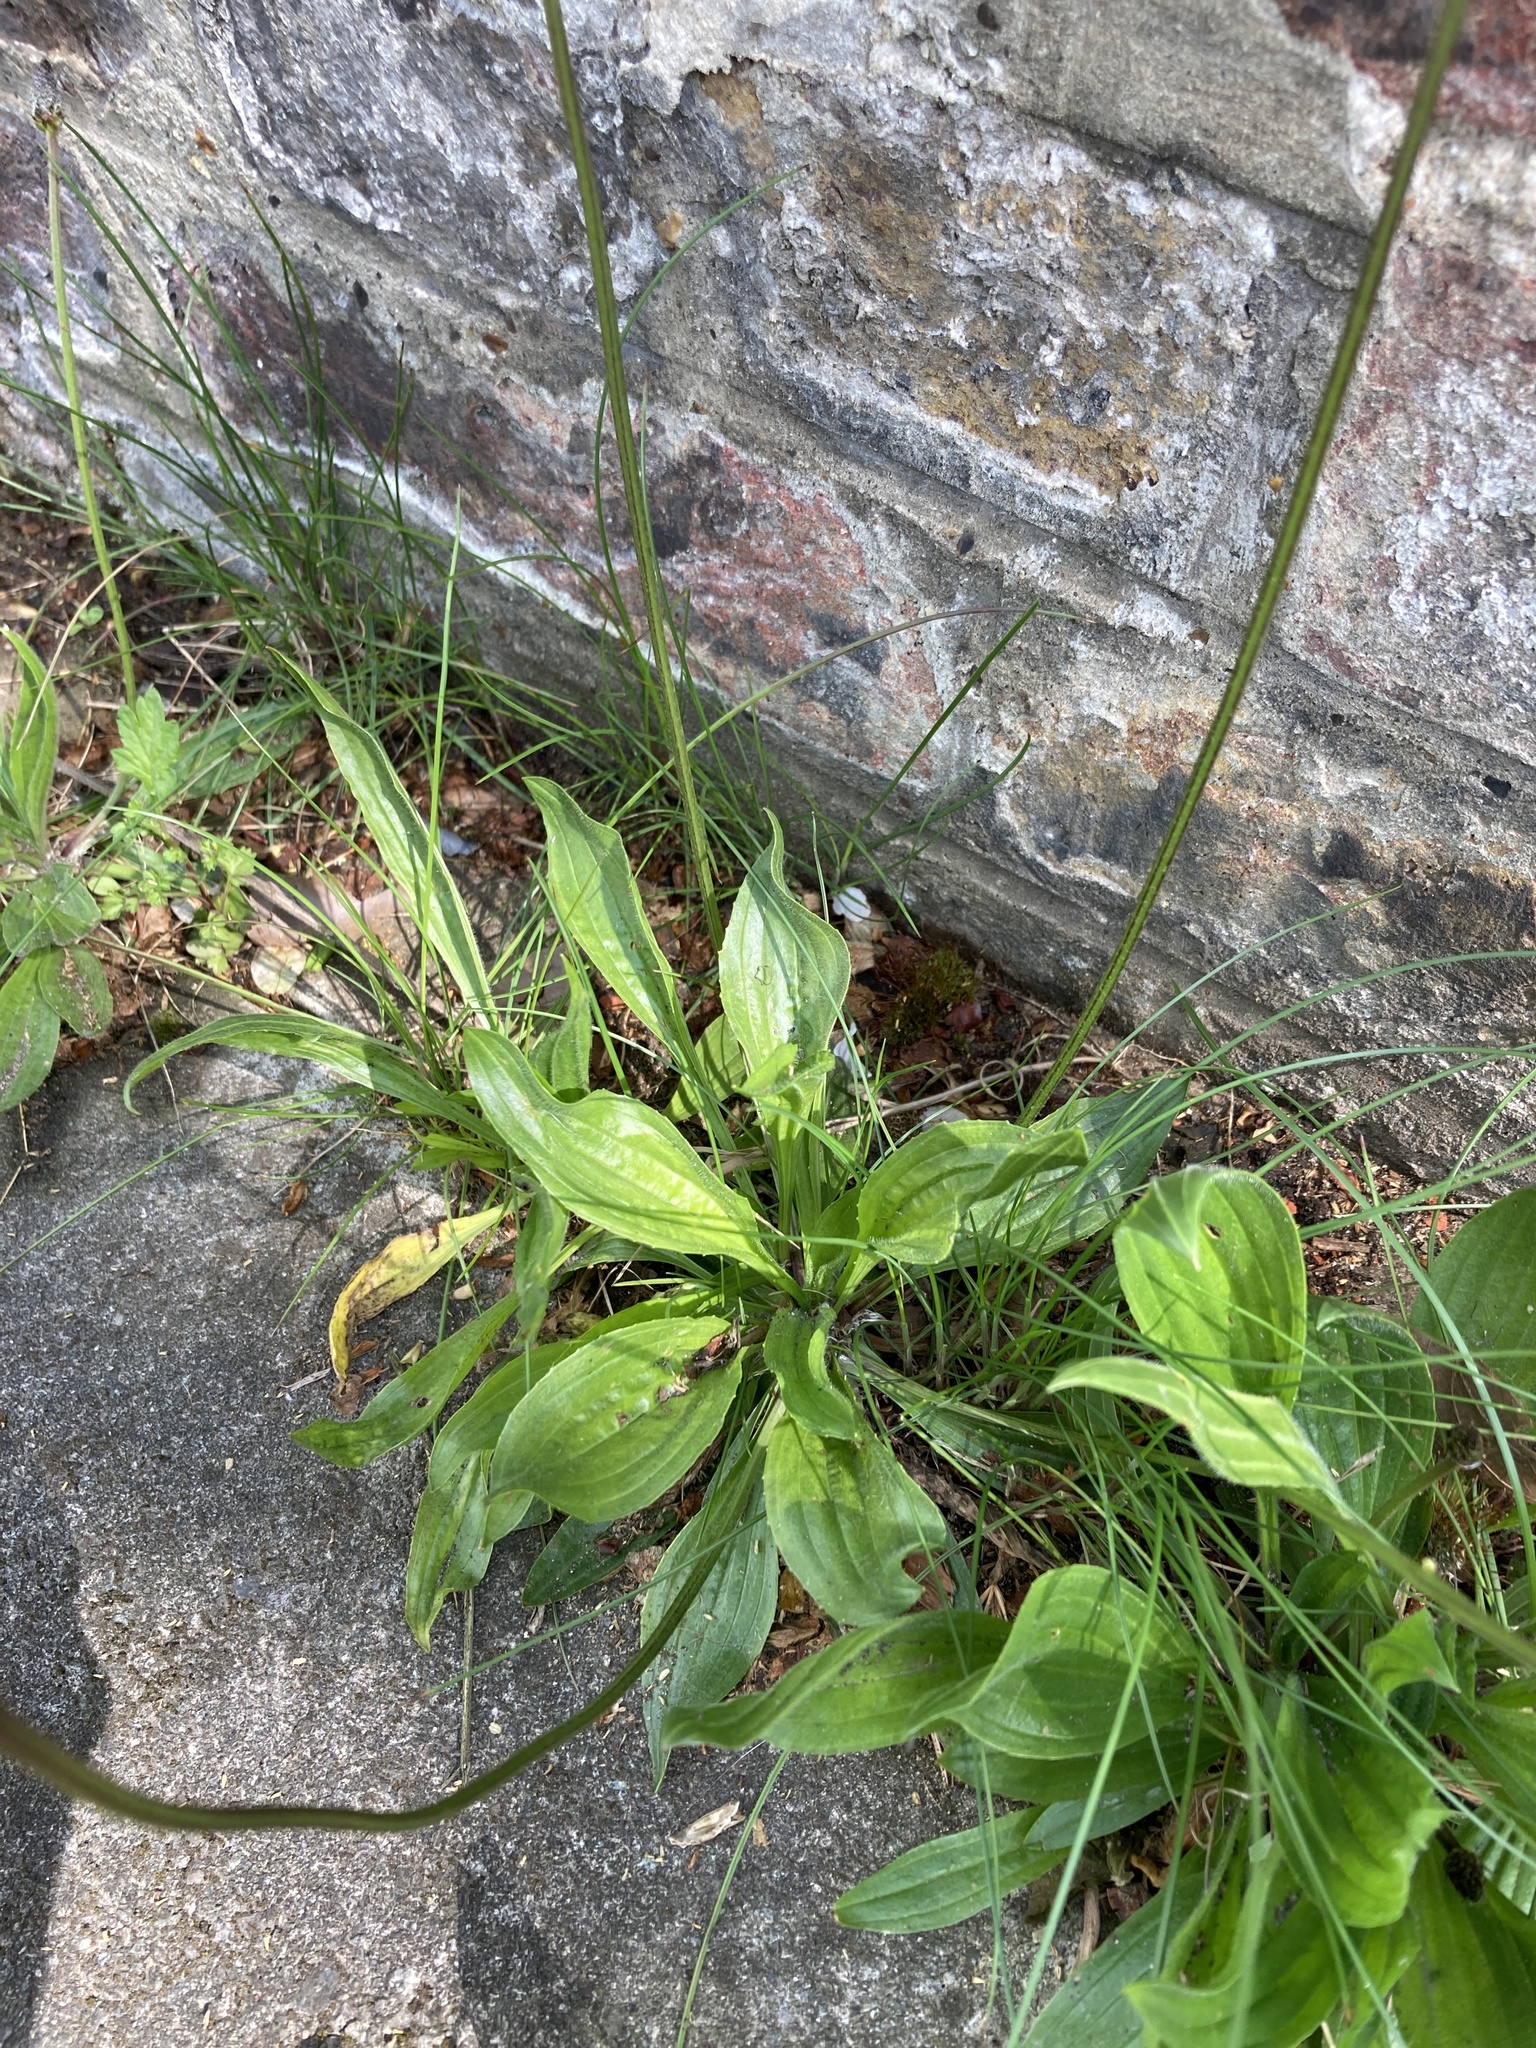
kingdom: Plantae
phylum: Tracheophyta
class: Magnoliopsida
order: Lamiales
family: Plantaginaceae
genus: Plantago
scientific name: Plantago lanceolata
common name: Ribwort plantain
